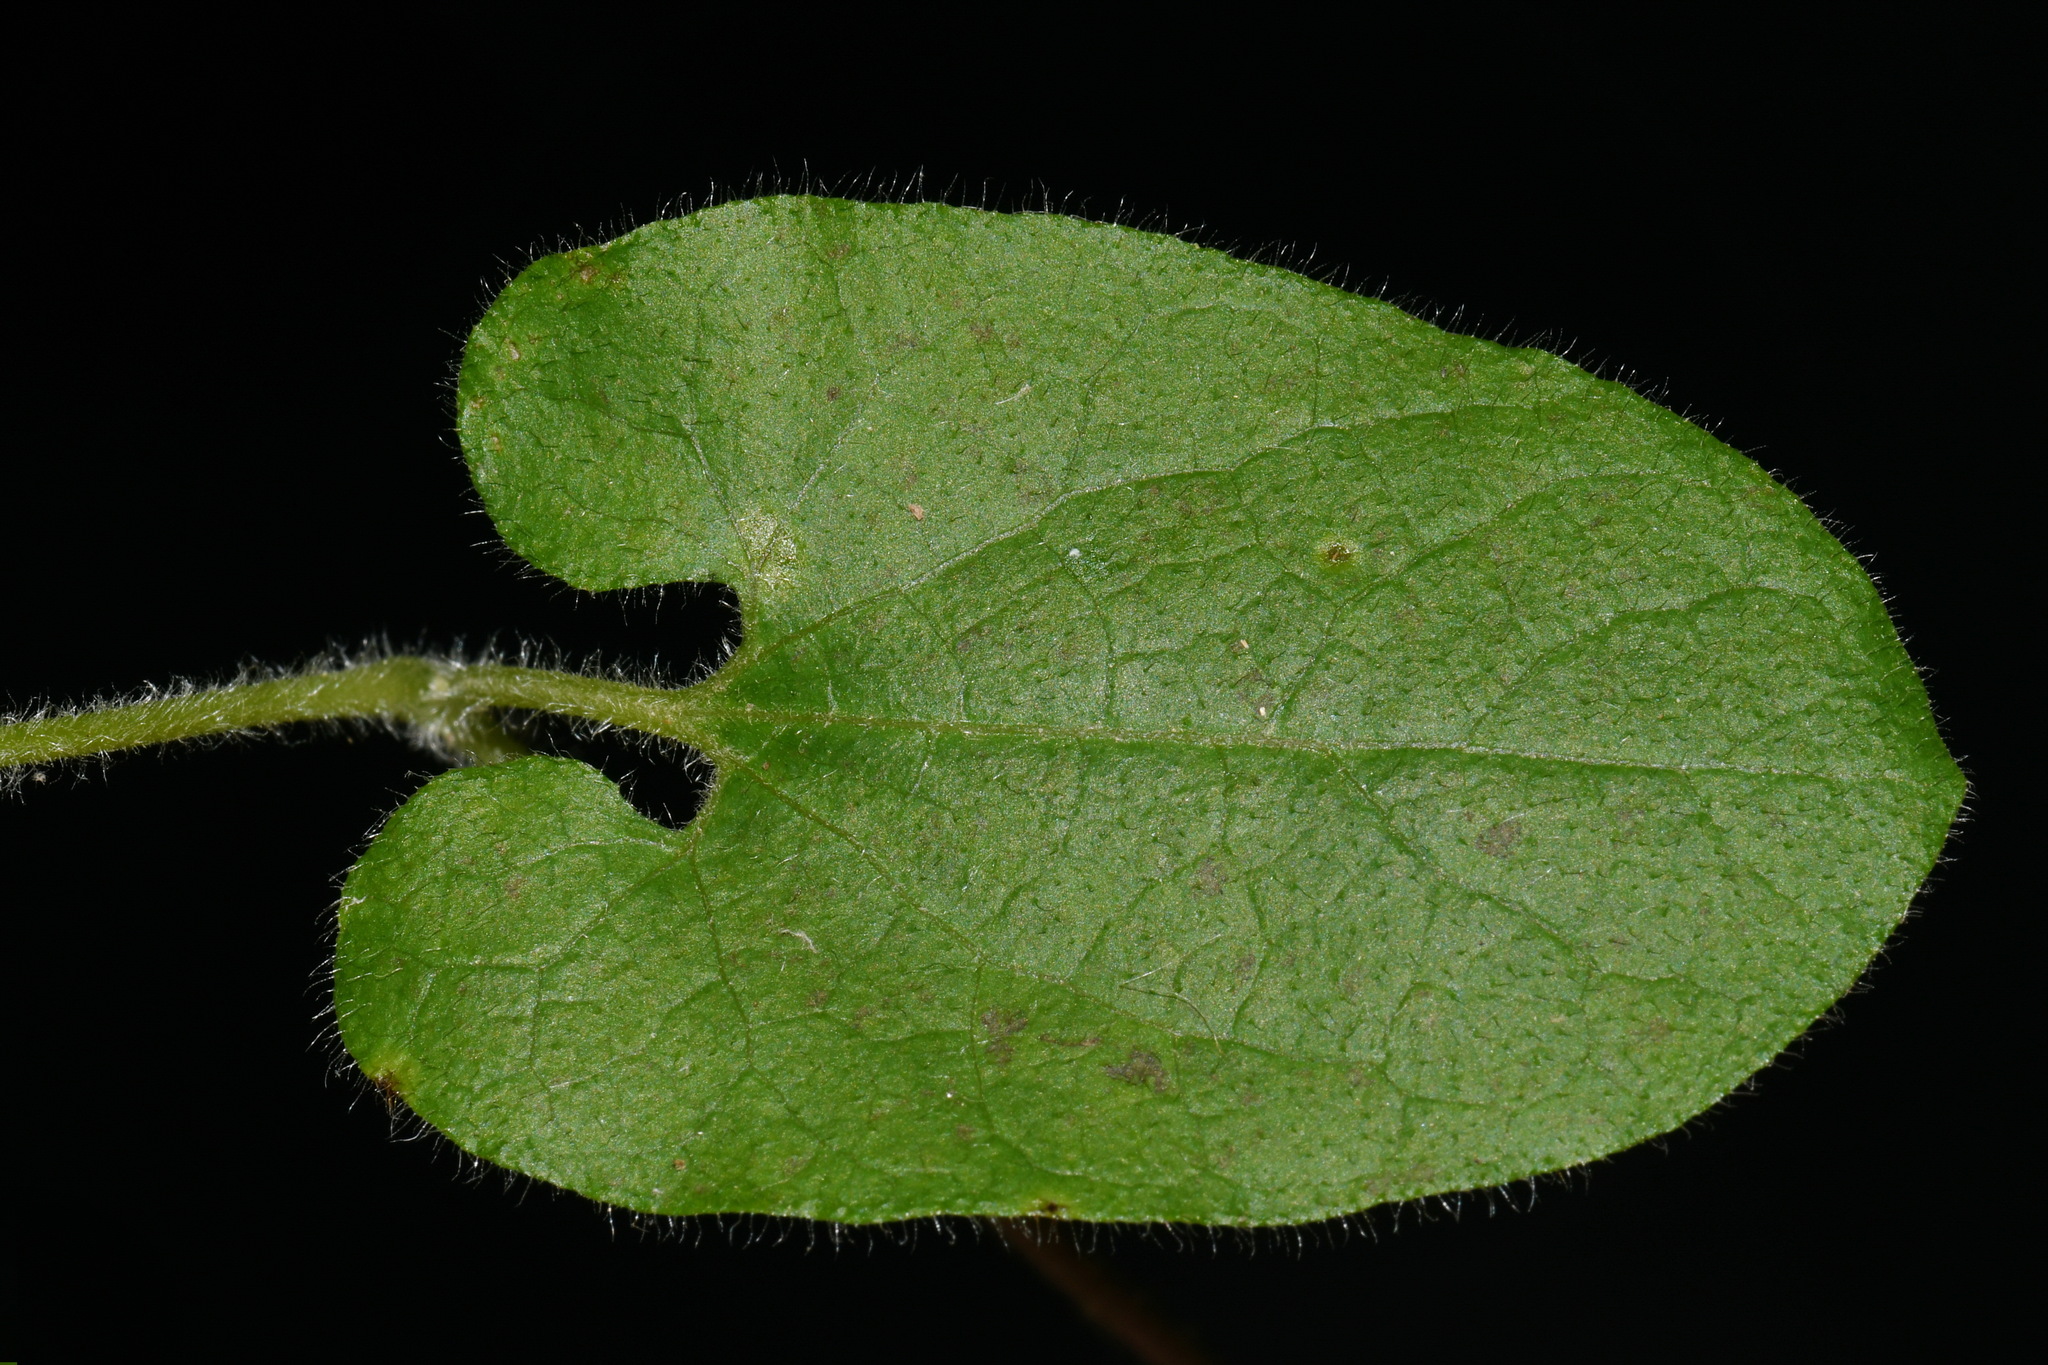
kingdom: Plantae
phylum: Tracheophyta
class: Magnoliopsida
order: Piperales
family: Aristolochiaceae
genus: Endodeca
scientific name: Endodeca serpentaria
